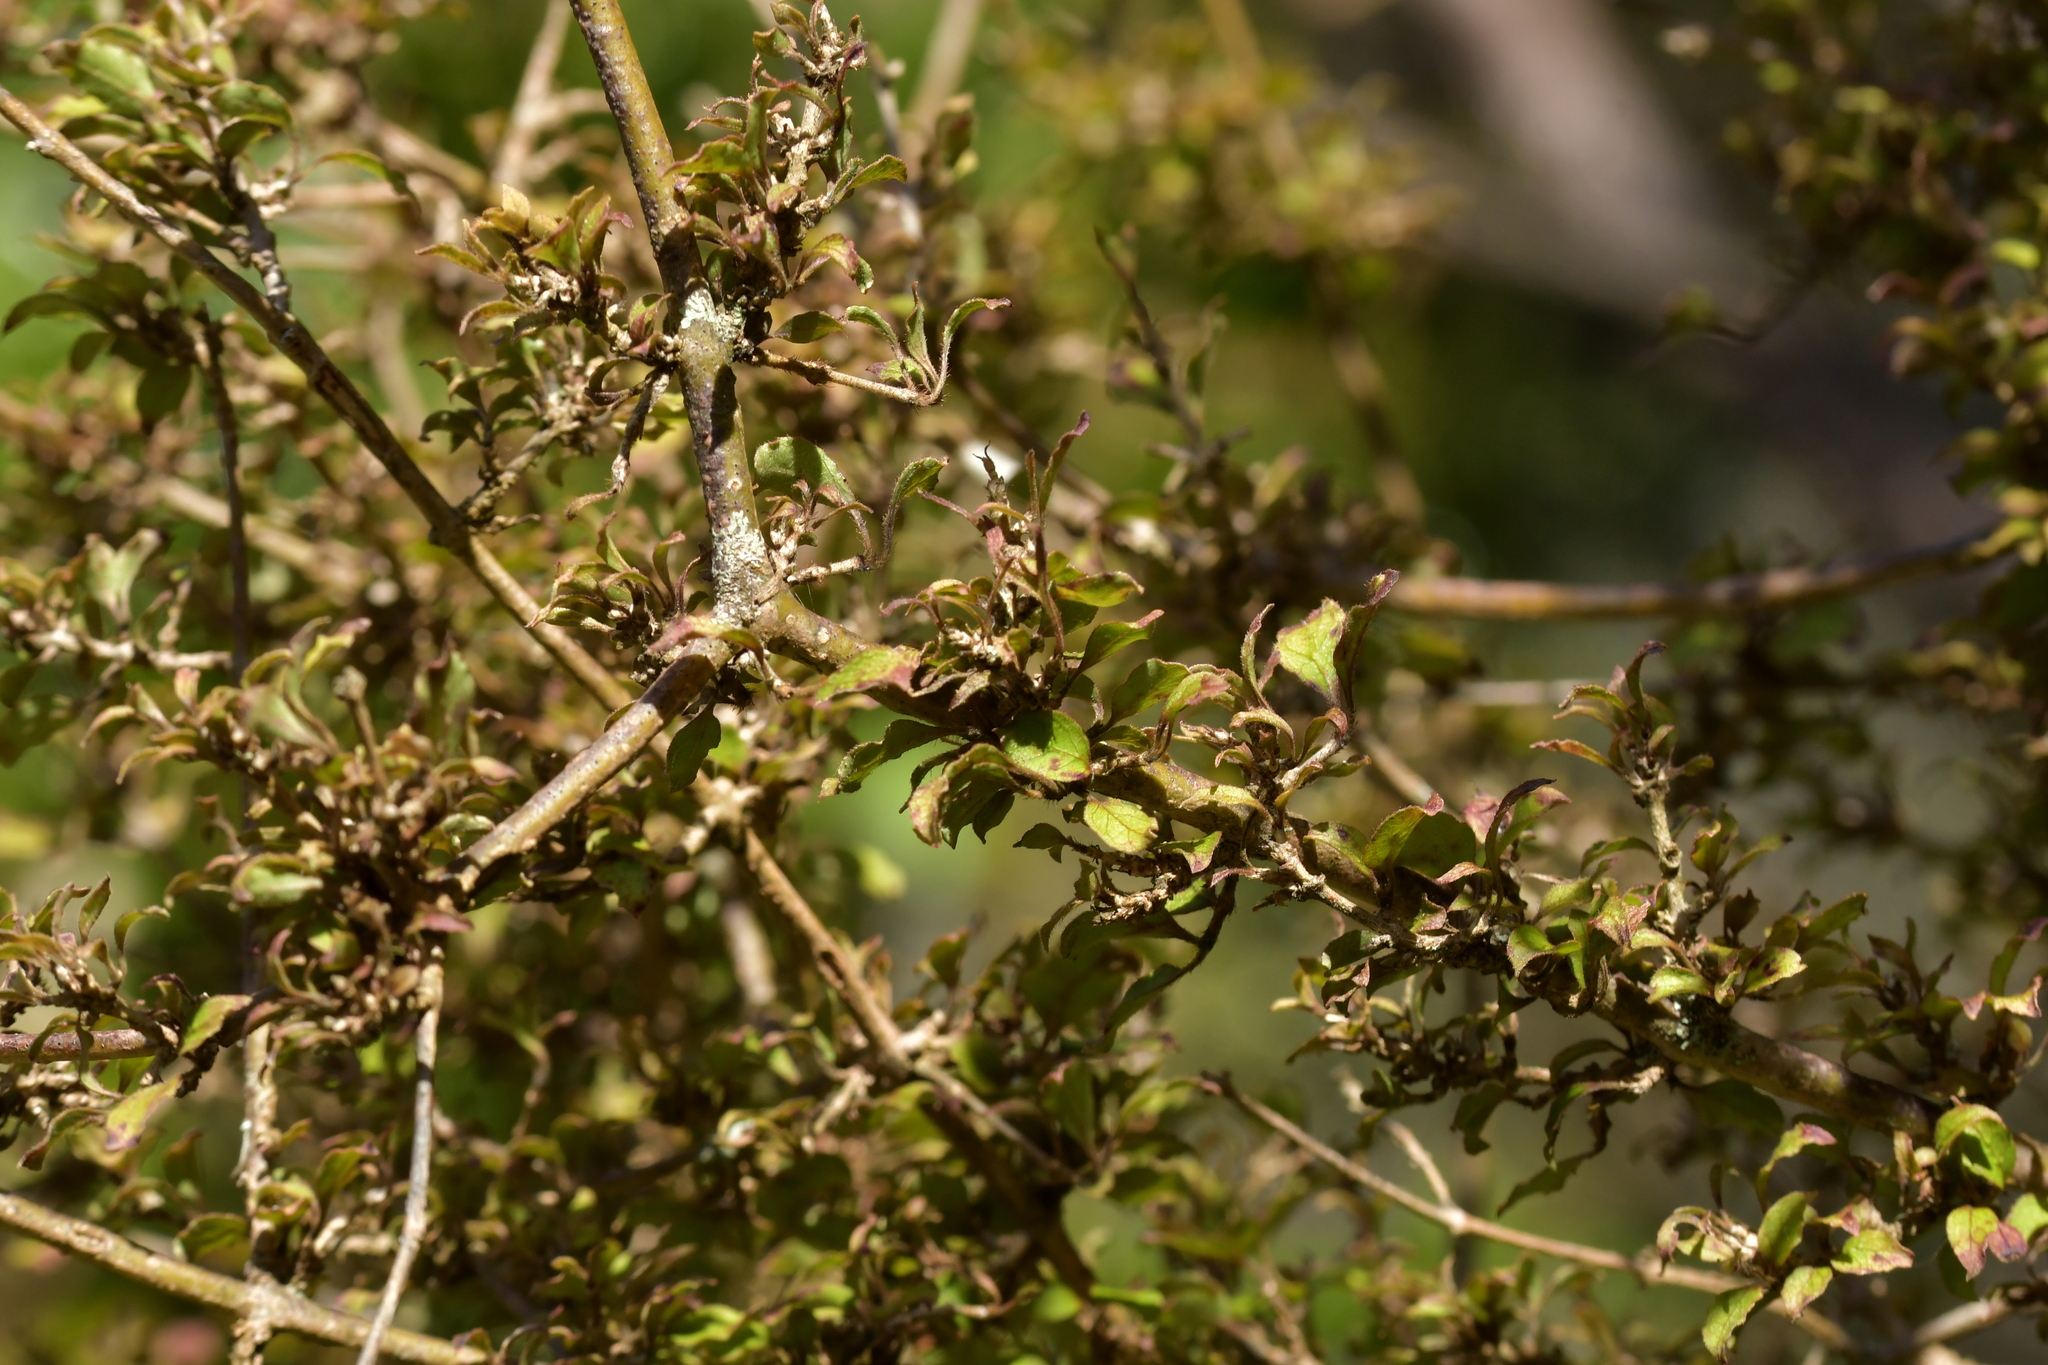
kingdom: Plantae
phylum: Tracheophyta
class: Magnoliopsida
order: Gentianales
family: Rubiaceae
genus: Coprosma
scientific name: Coprosma rubra
